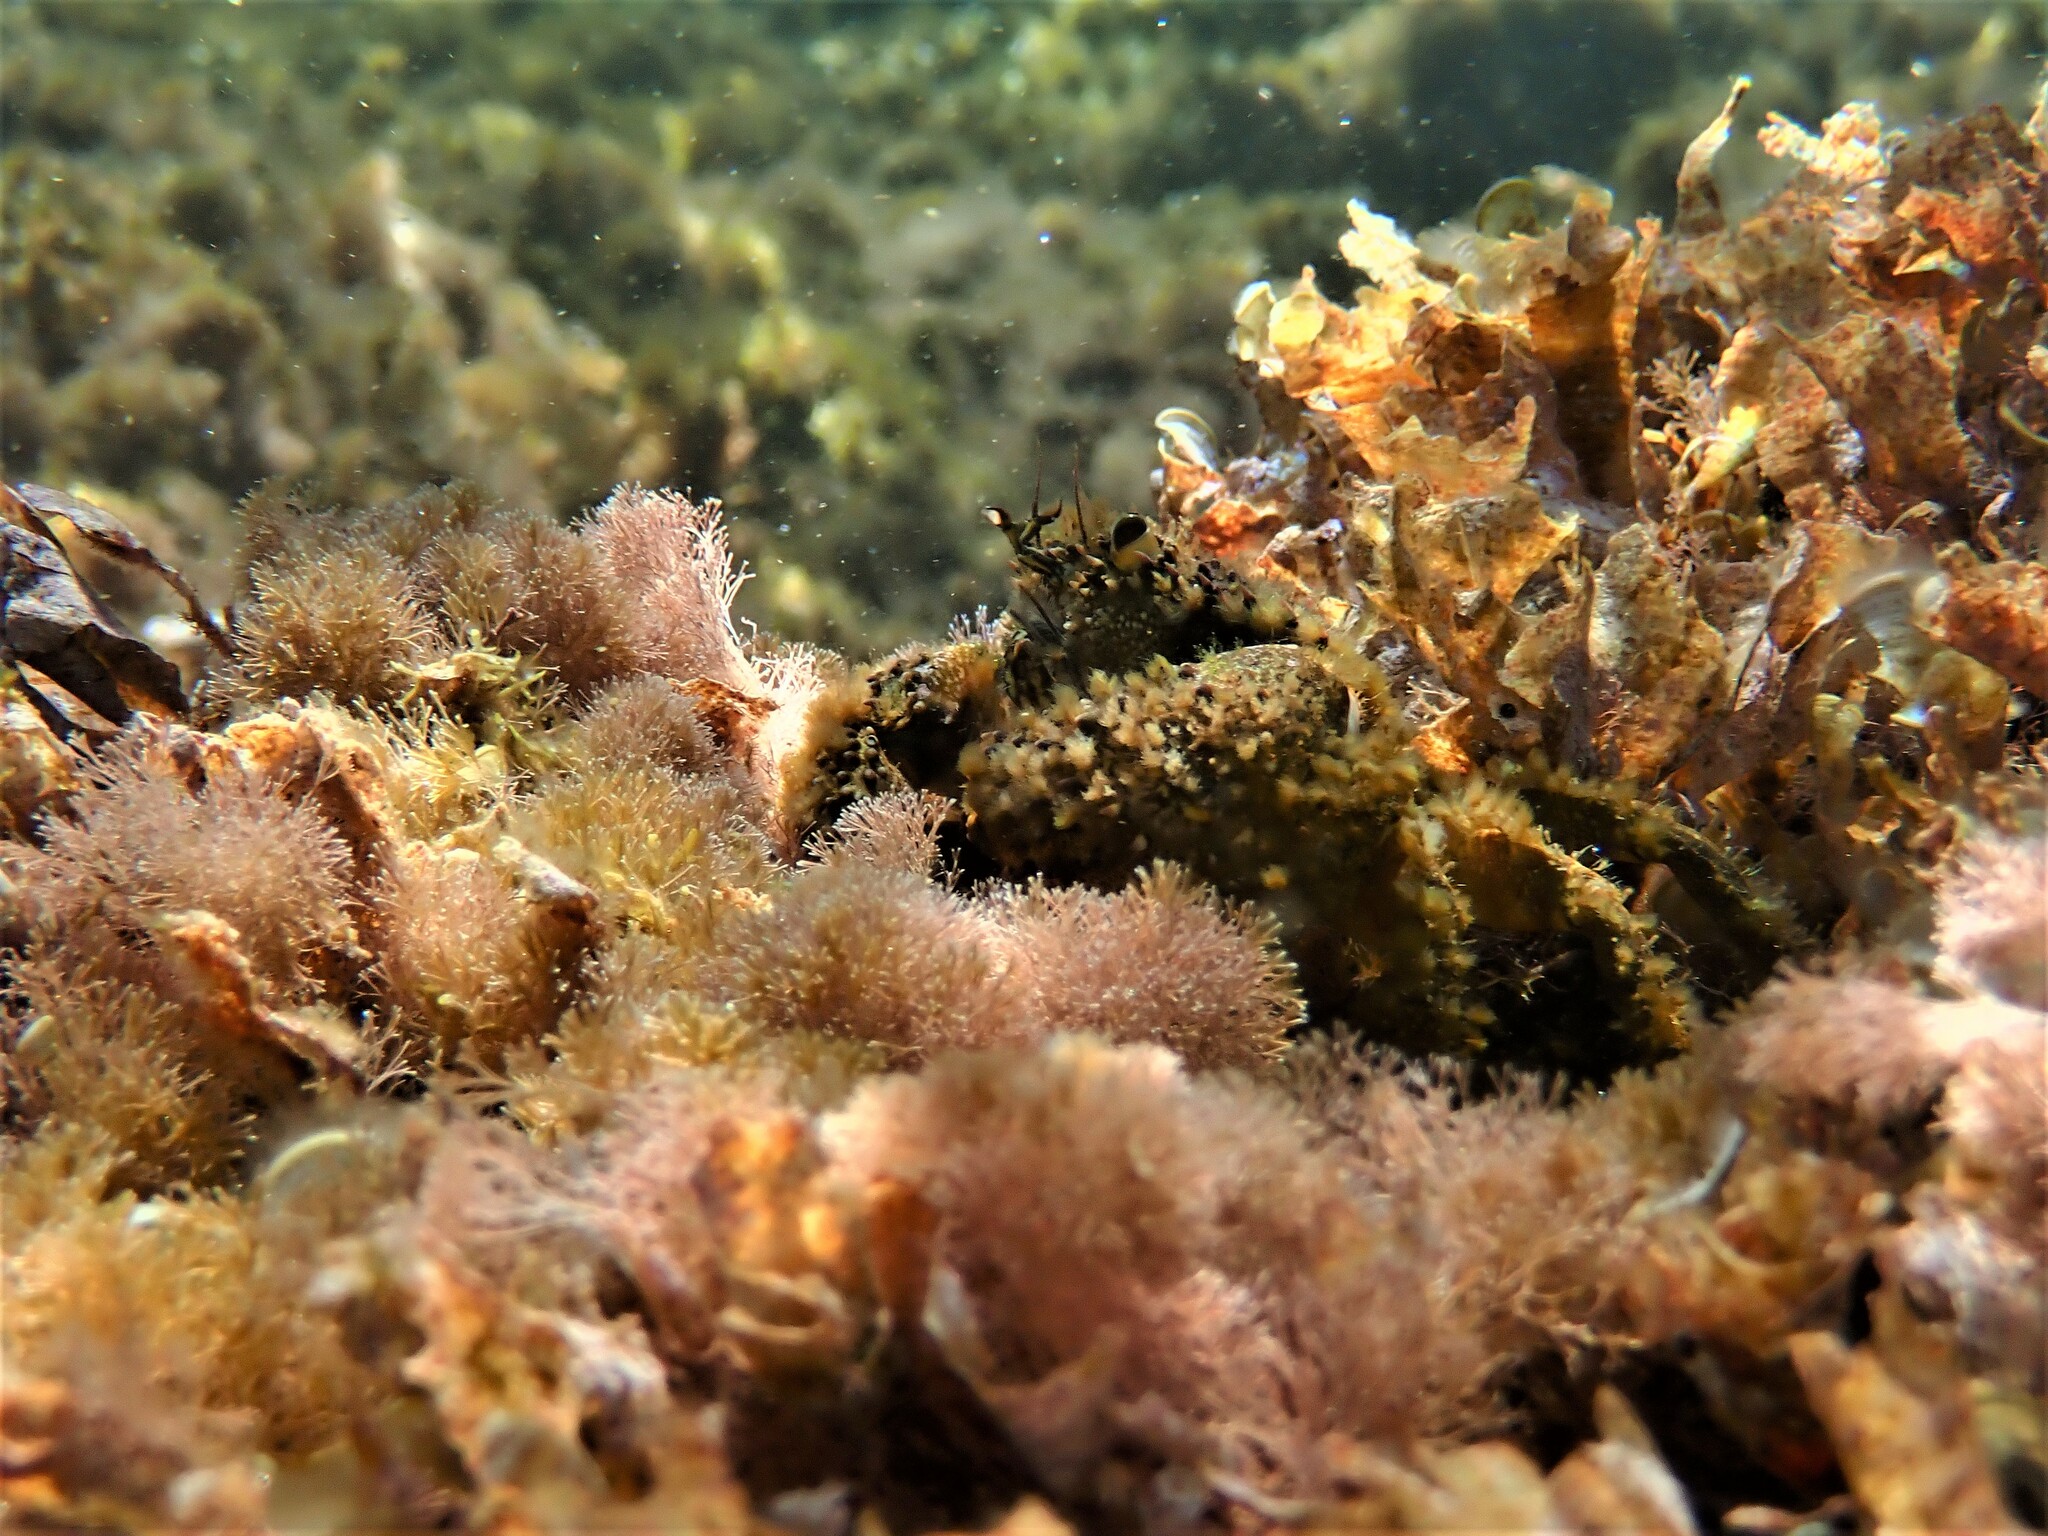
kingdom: Animalia
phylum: Arthropoda
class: Malacostraca
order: Decapoda
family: Eriphiidae
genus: Eriphia
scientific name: Eriphia verrucosa
